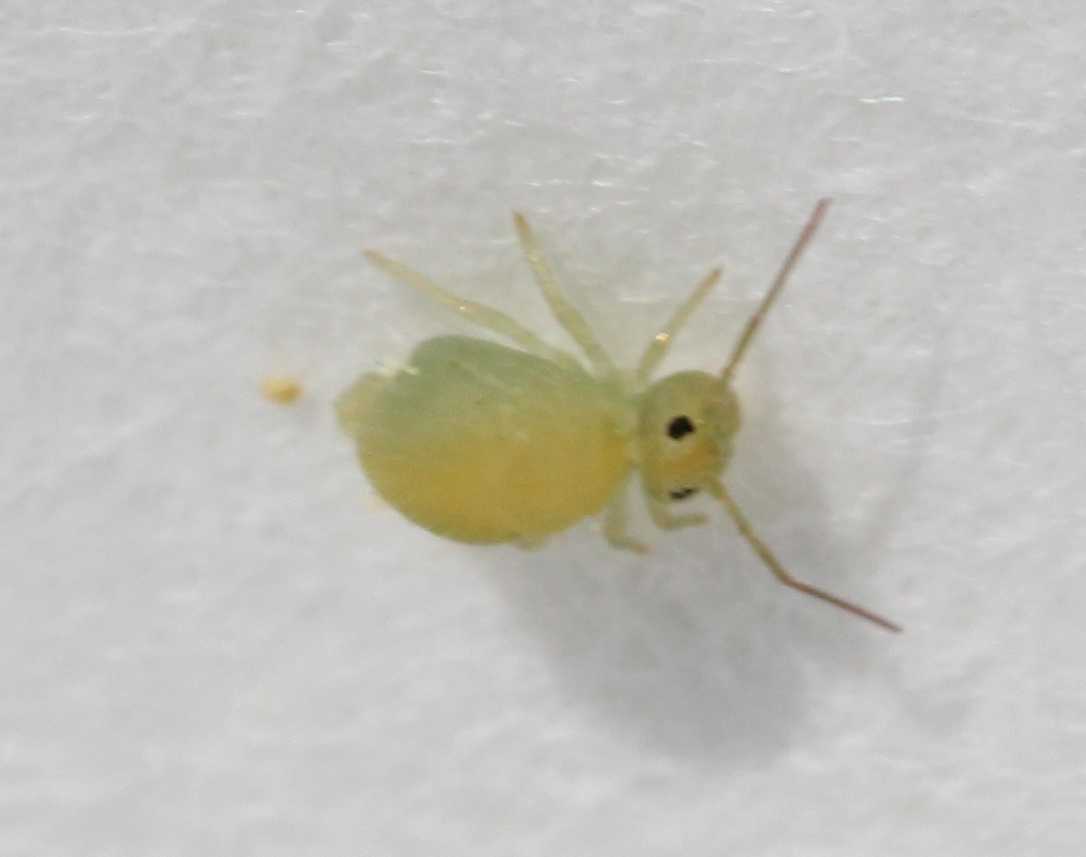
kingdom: Animalia
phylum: Arthropoda
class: Collembola
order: Symphypleona
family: Sminthuridae
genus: Sminthurus
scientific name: Sminthurus viridis
